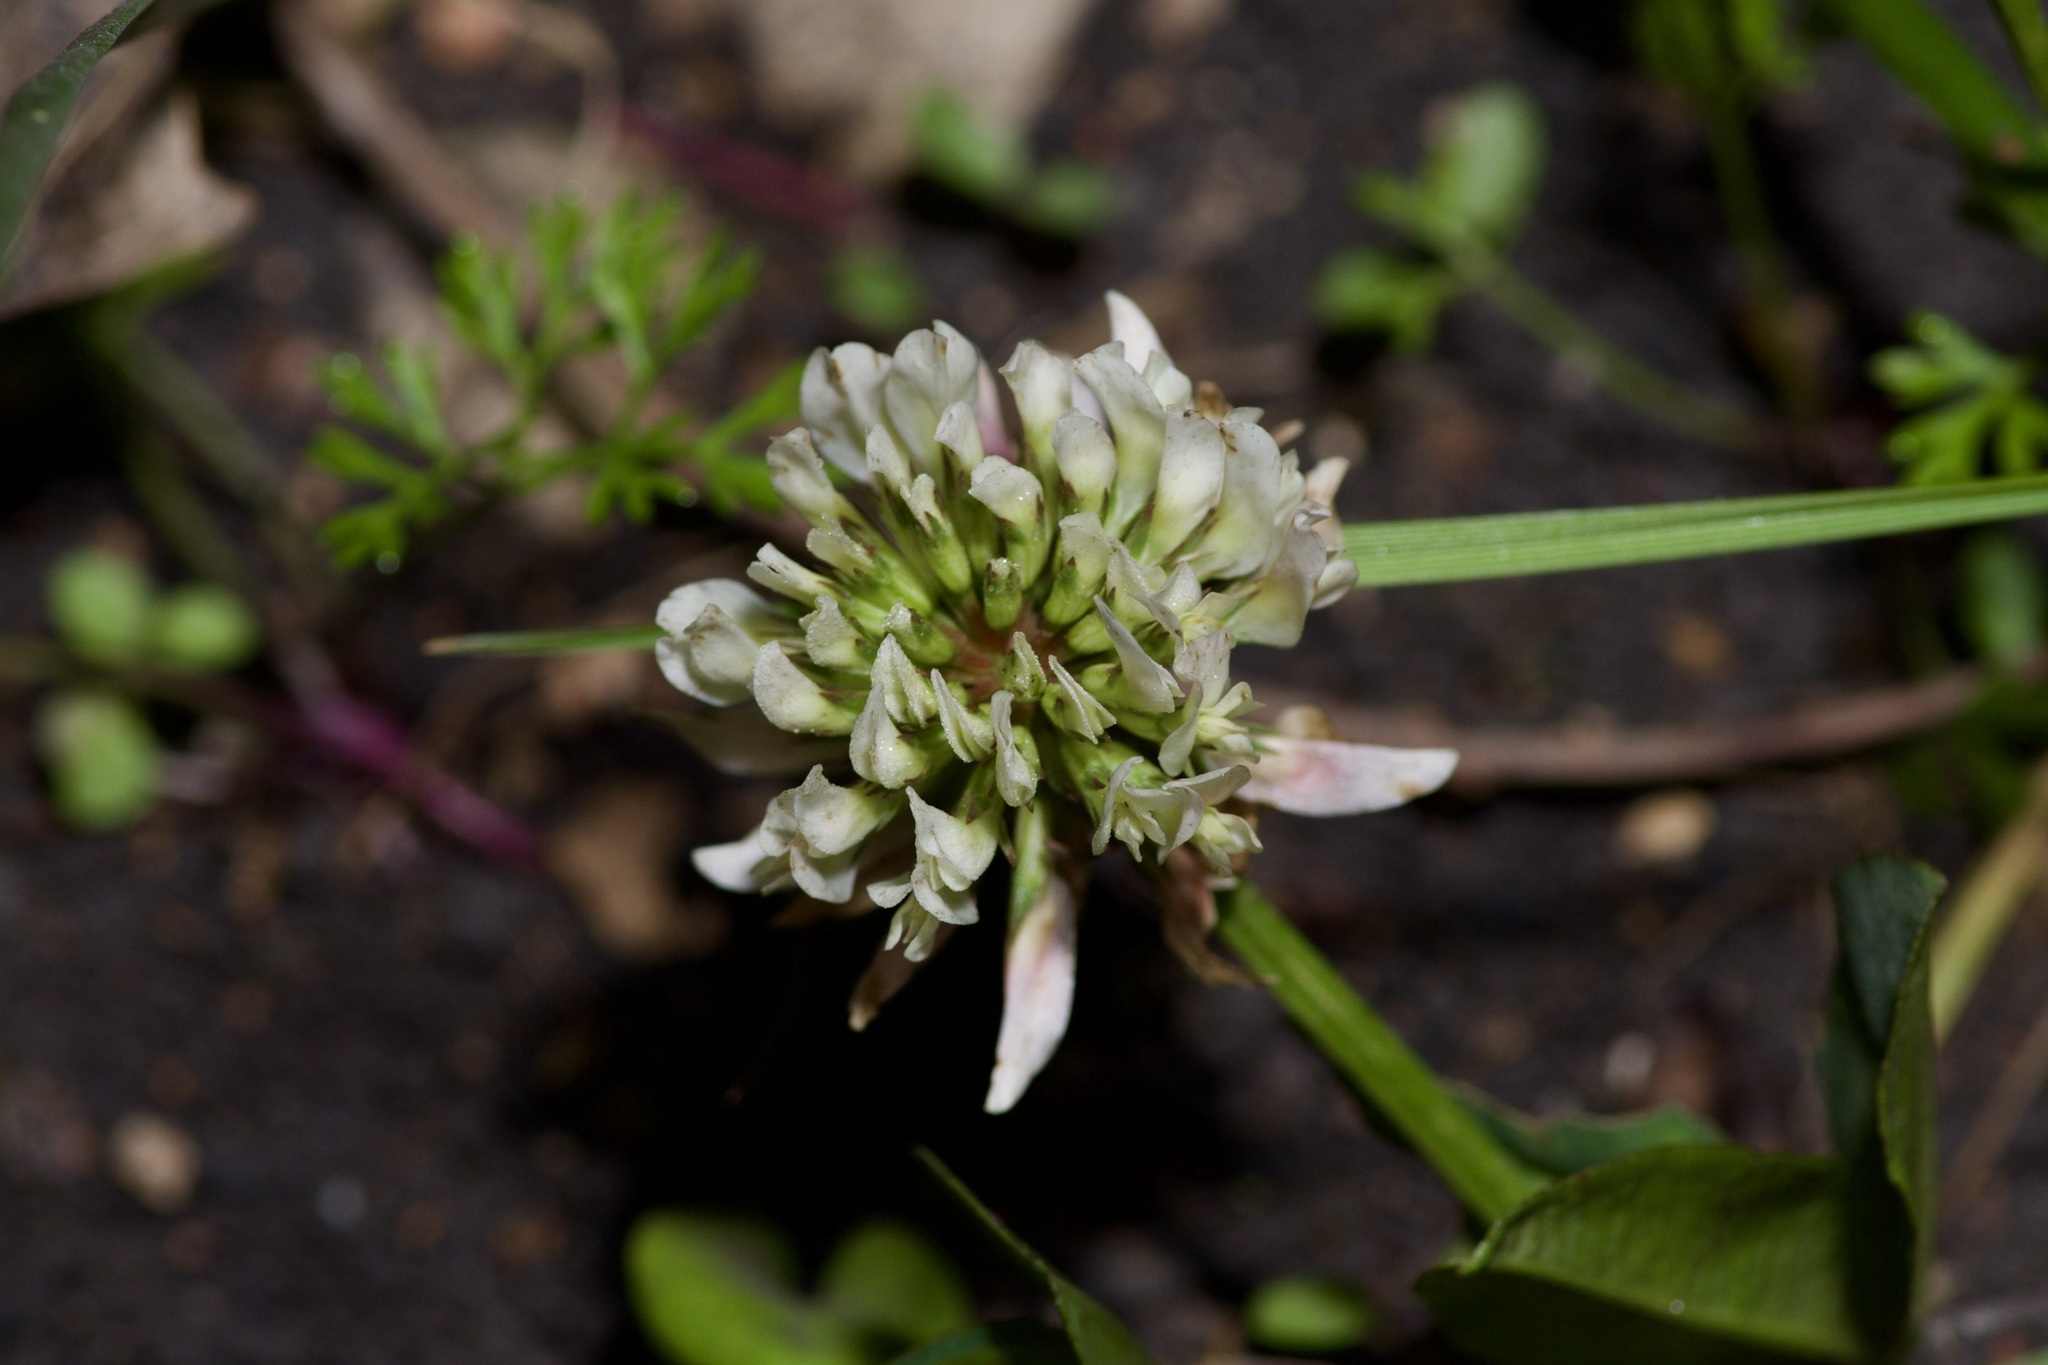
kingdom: Plantae
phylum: Tracheophyta
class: Magnoliopsida
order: Fabales
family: Fabaceae
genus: Trifolium
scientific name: Trifolium repens
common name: White clover
